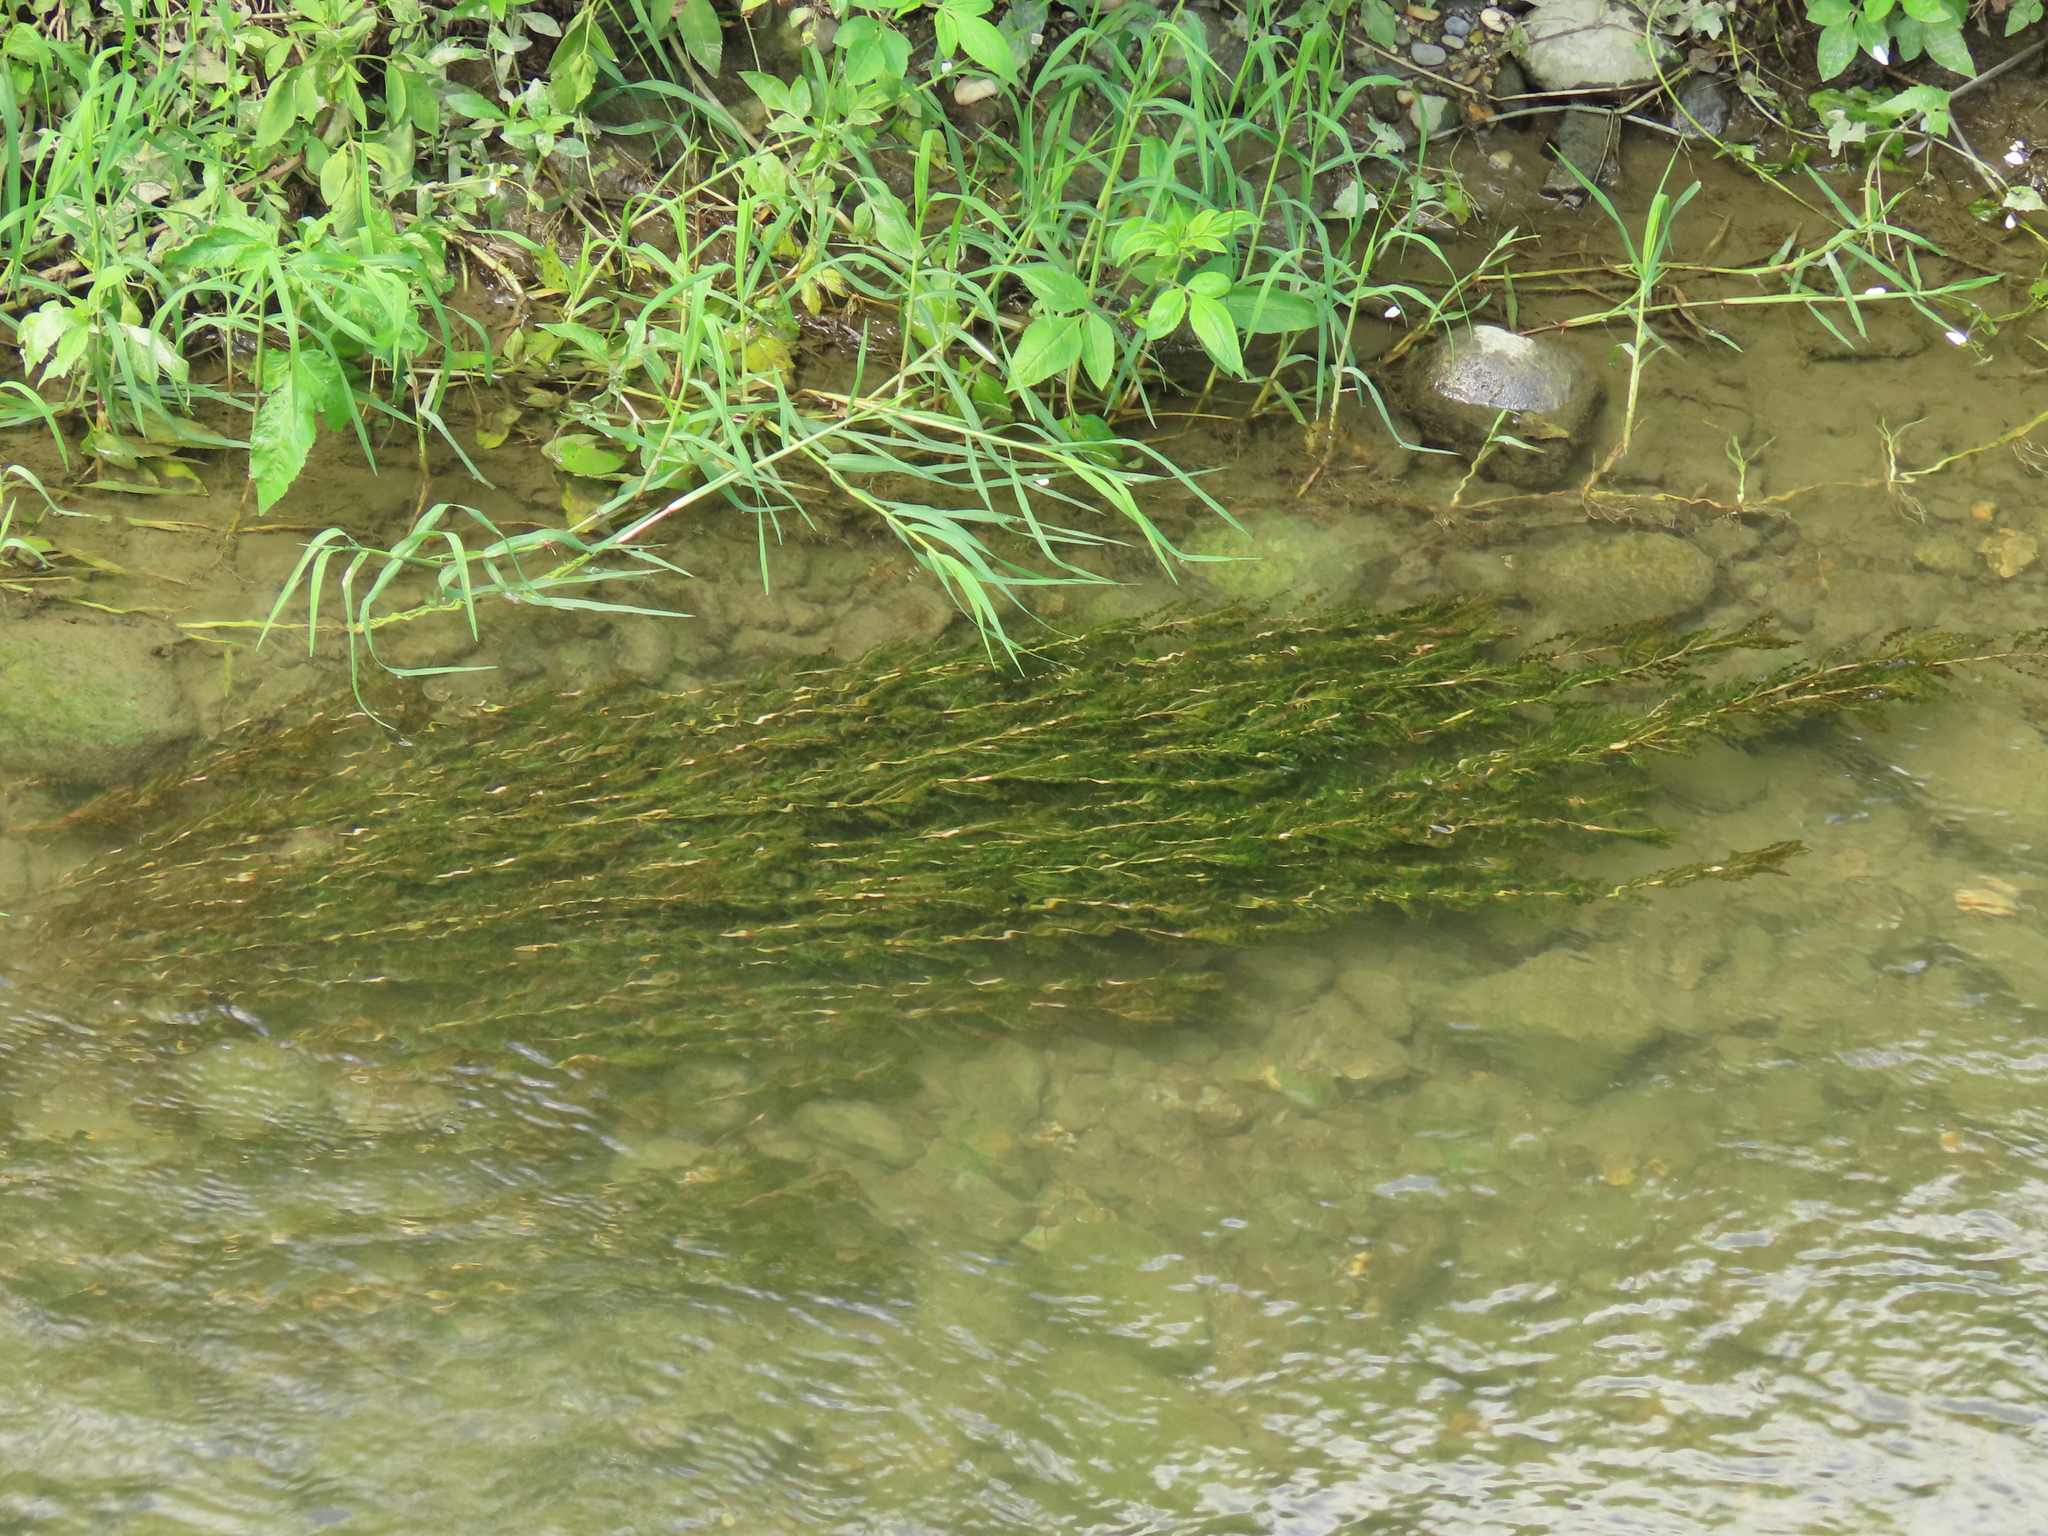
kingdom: Plantae
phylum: Tracheophyta
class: Liliopsida
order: Alismatales
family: Potamogetonaceae
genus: Potamogeton
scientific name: Potamogeton crispus
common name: Curled pondweed
